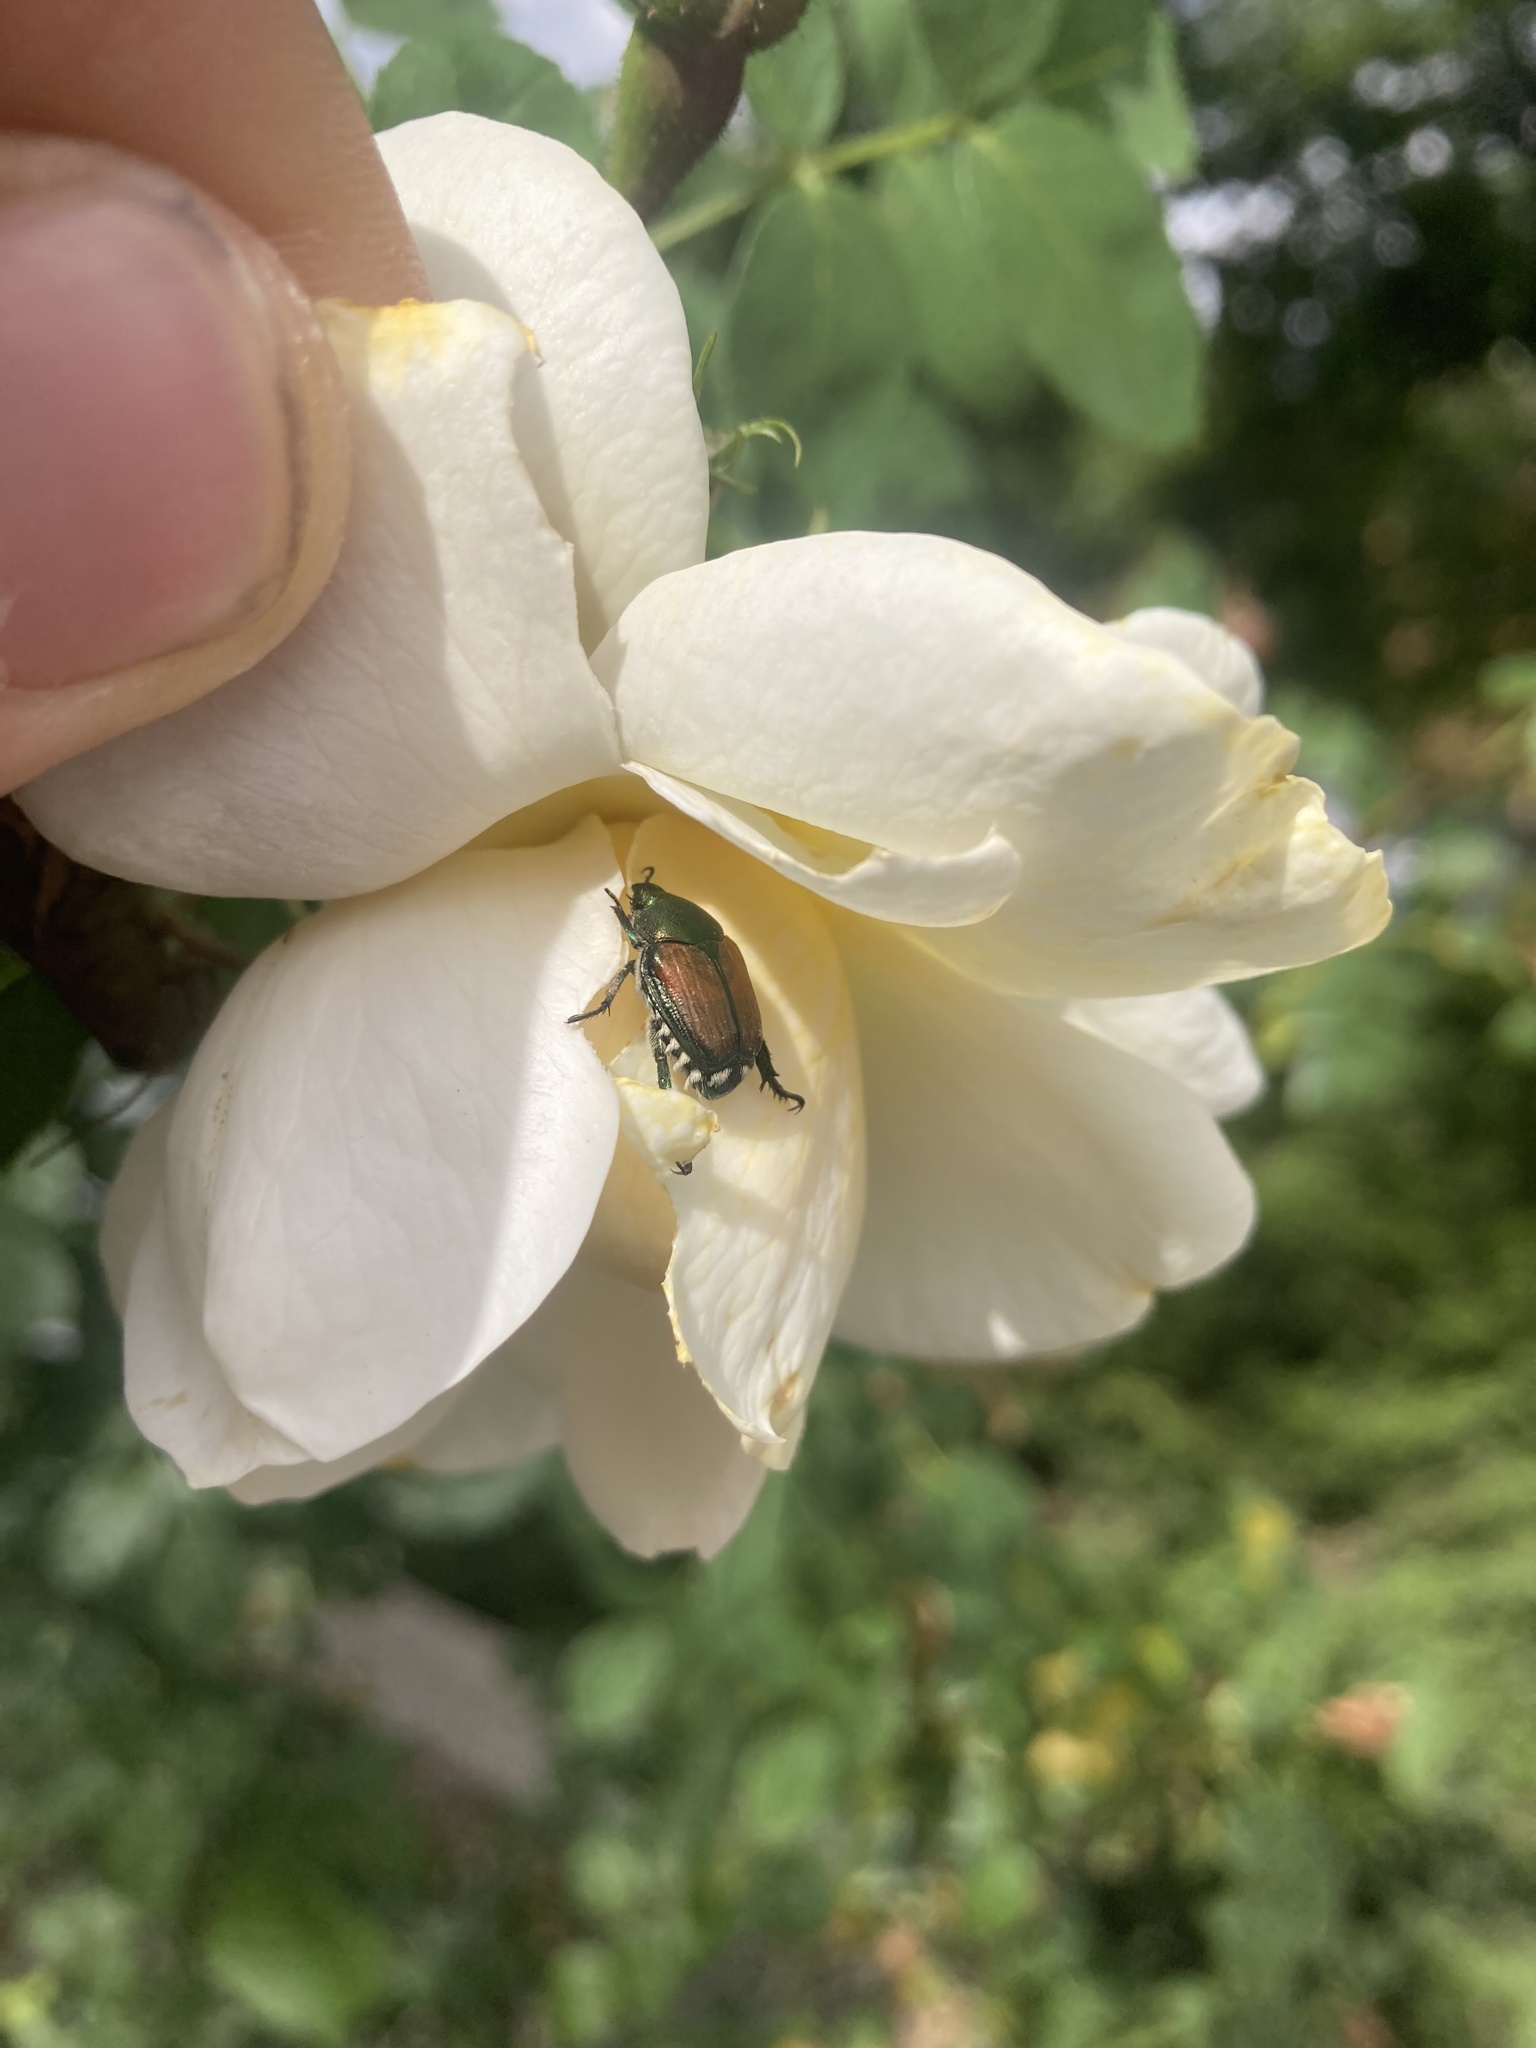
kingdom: Animalia
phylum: Arthropoda
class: Insecta
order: Coleoptera
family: Scarabaeidae
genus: Popillia
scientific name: Popillia japonica
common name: Japanese beetle
